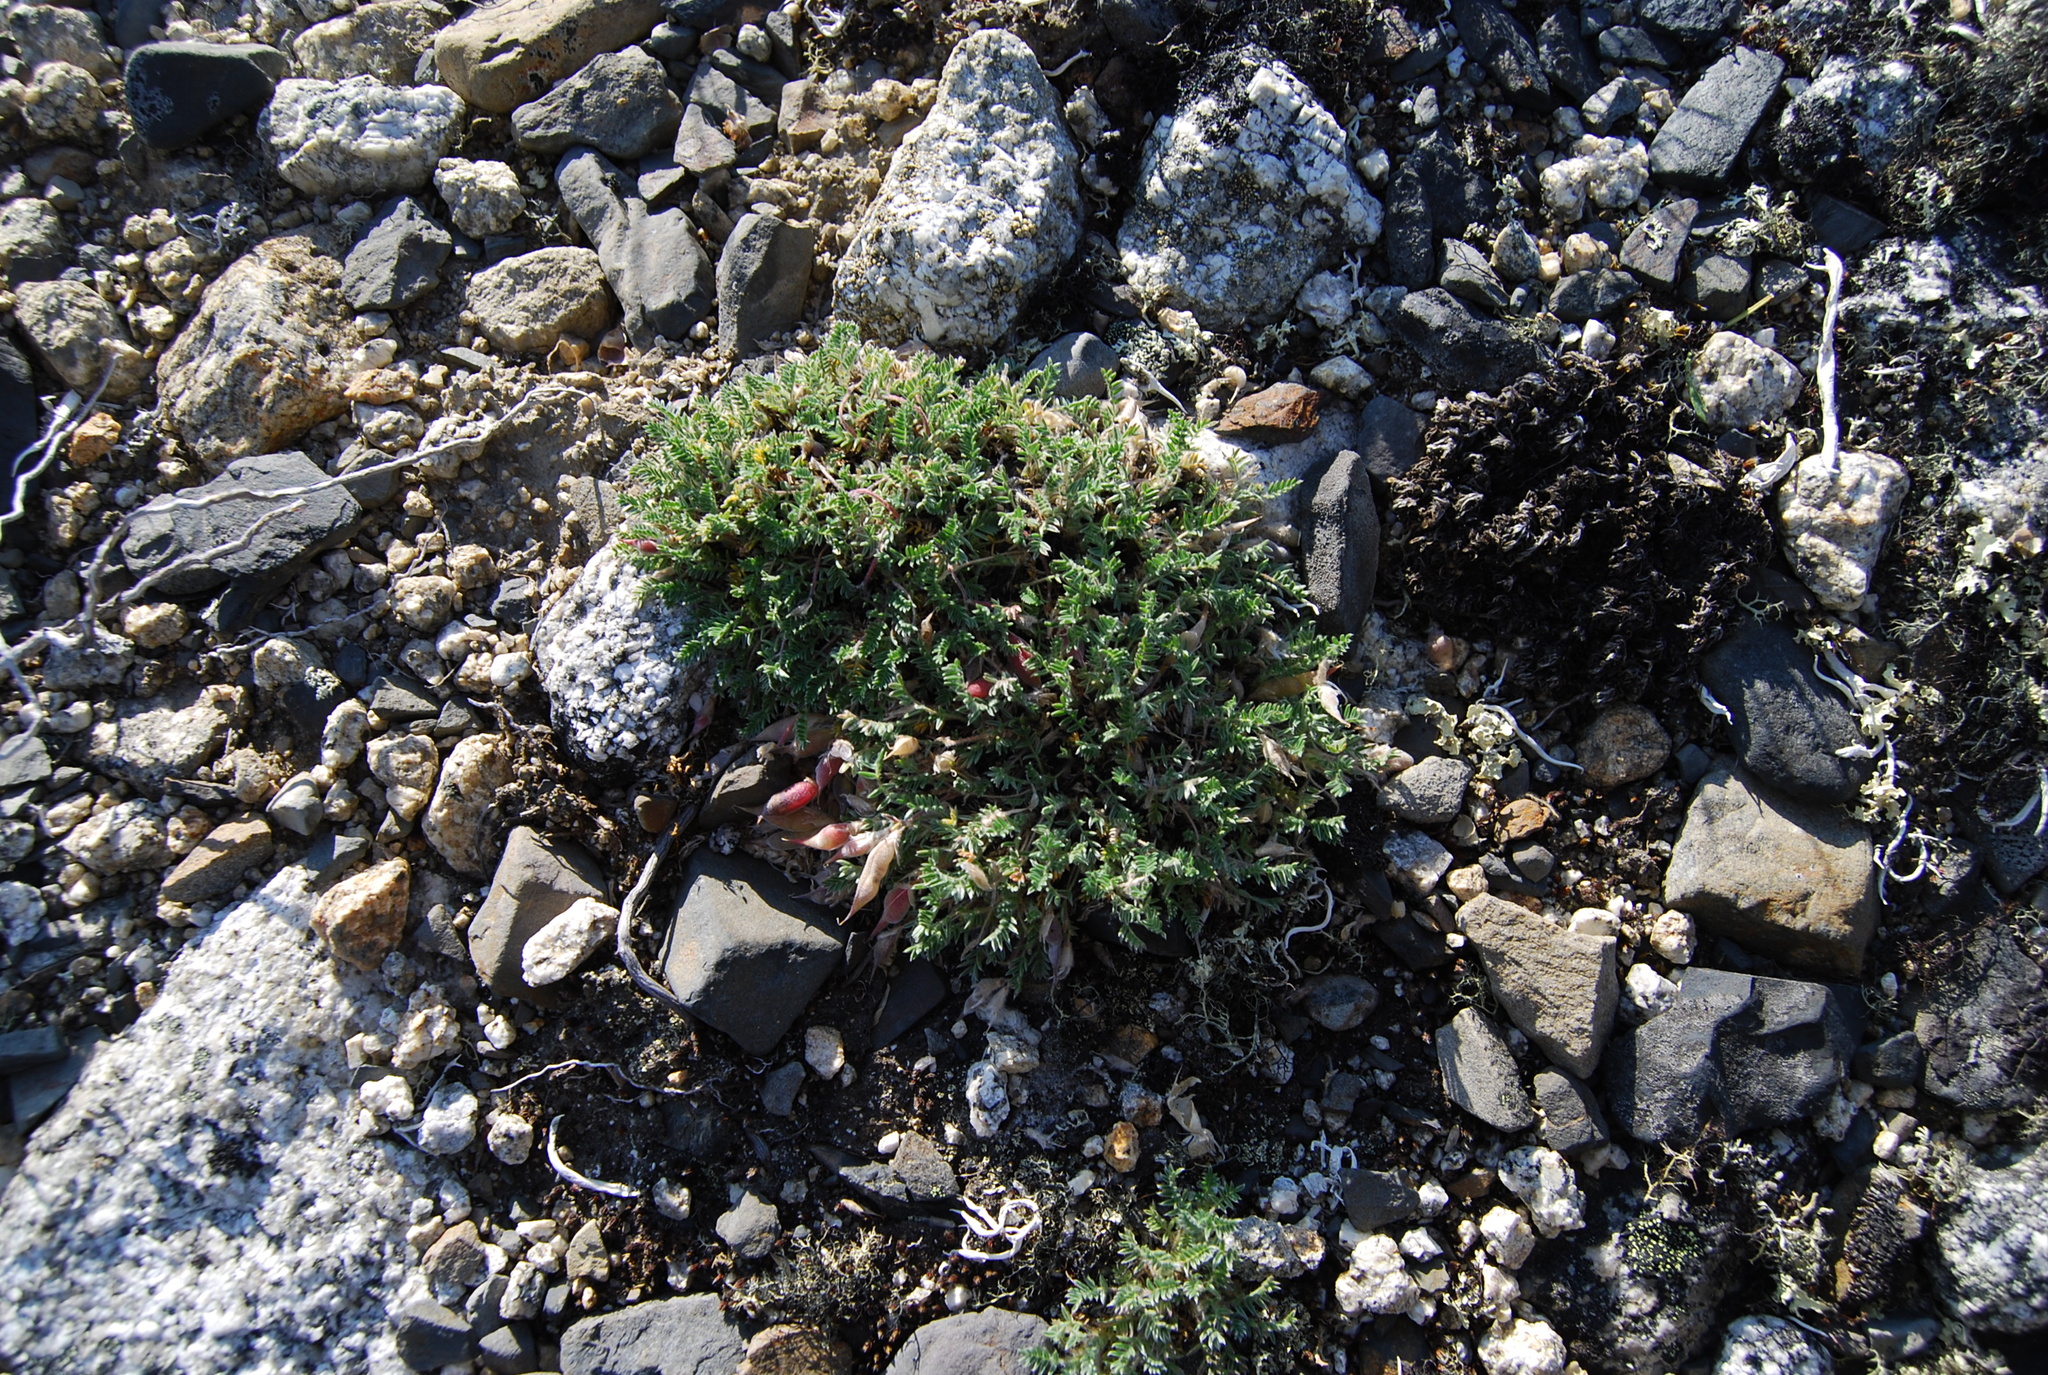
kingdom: Plantae
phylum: Tracheophyta
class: Magnoliopsida
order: Fabales
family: Fabaceae
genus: Oxytropis
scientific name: Oxytropis susumanica
